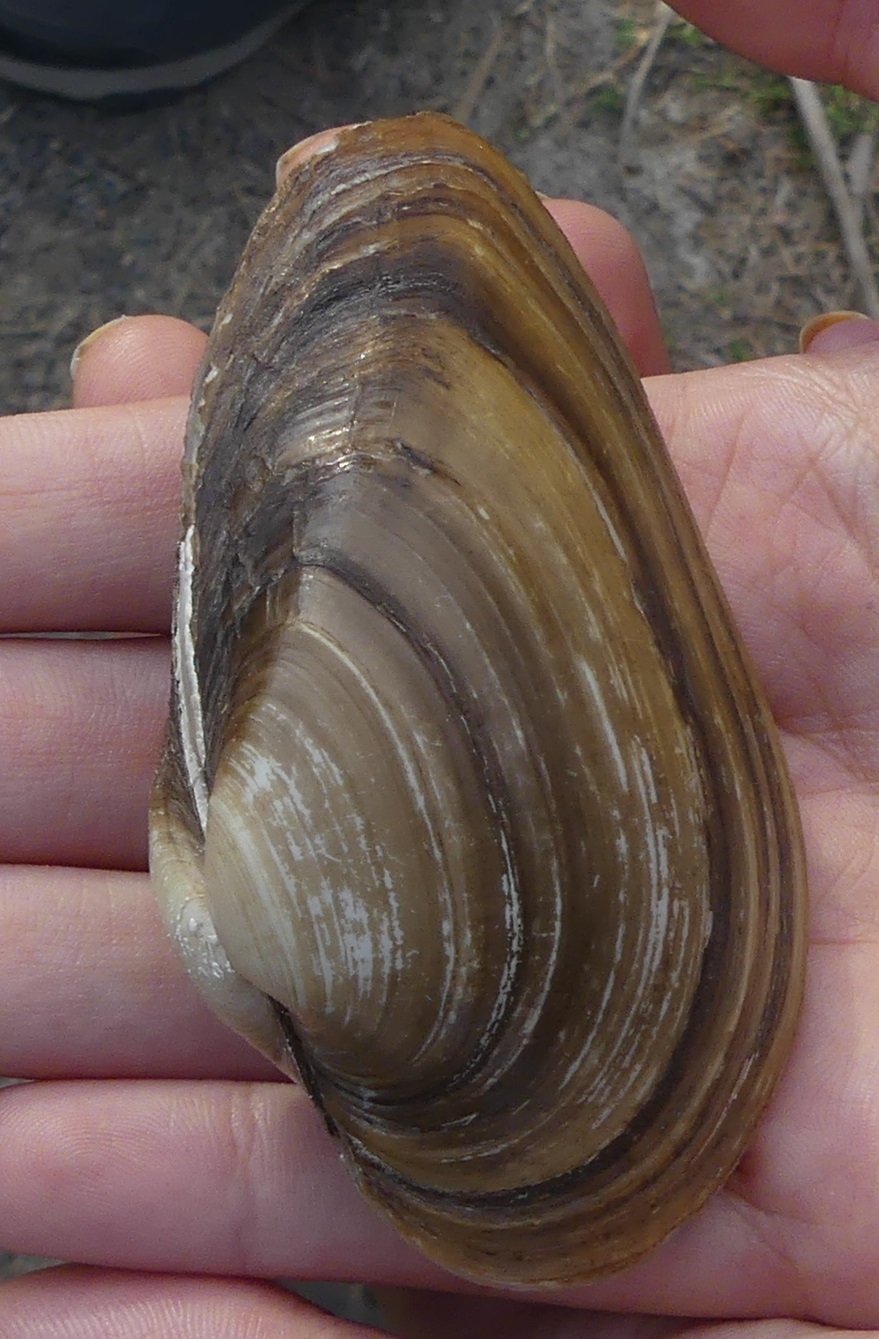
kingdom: Animalia
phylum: Mollusca
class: Bivalvia
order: Unionida
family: Unionidae
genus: Unio
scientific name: Unio mancus
